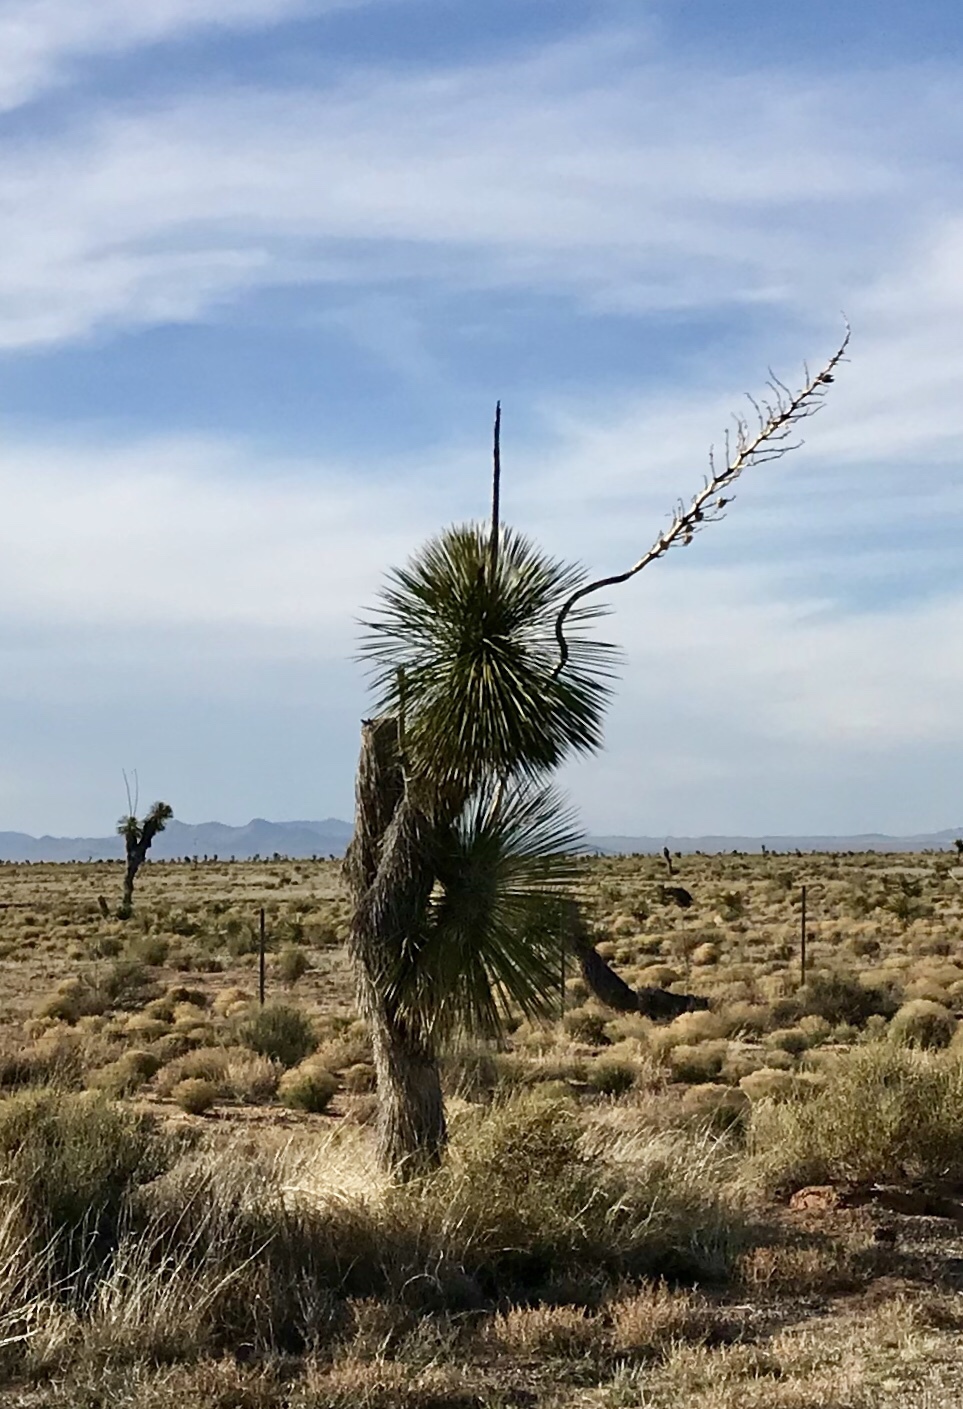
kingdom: Plantae
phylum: Tracheophyta
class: Liliopsida
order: Asparagales
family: Asparagaceae
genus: Yucca
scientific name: Yucca elata
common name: Palmella
